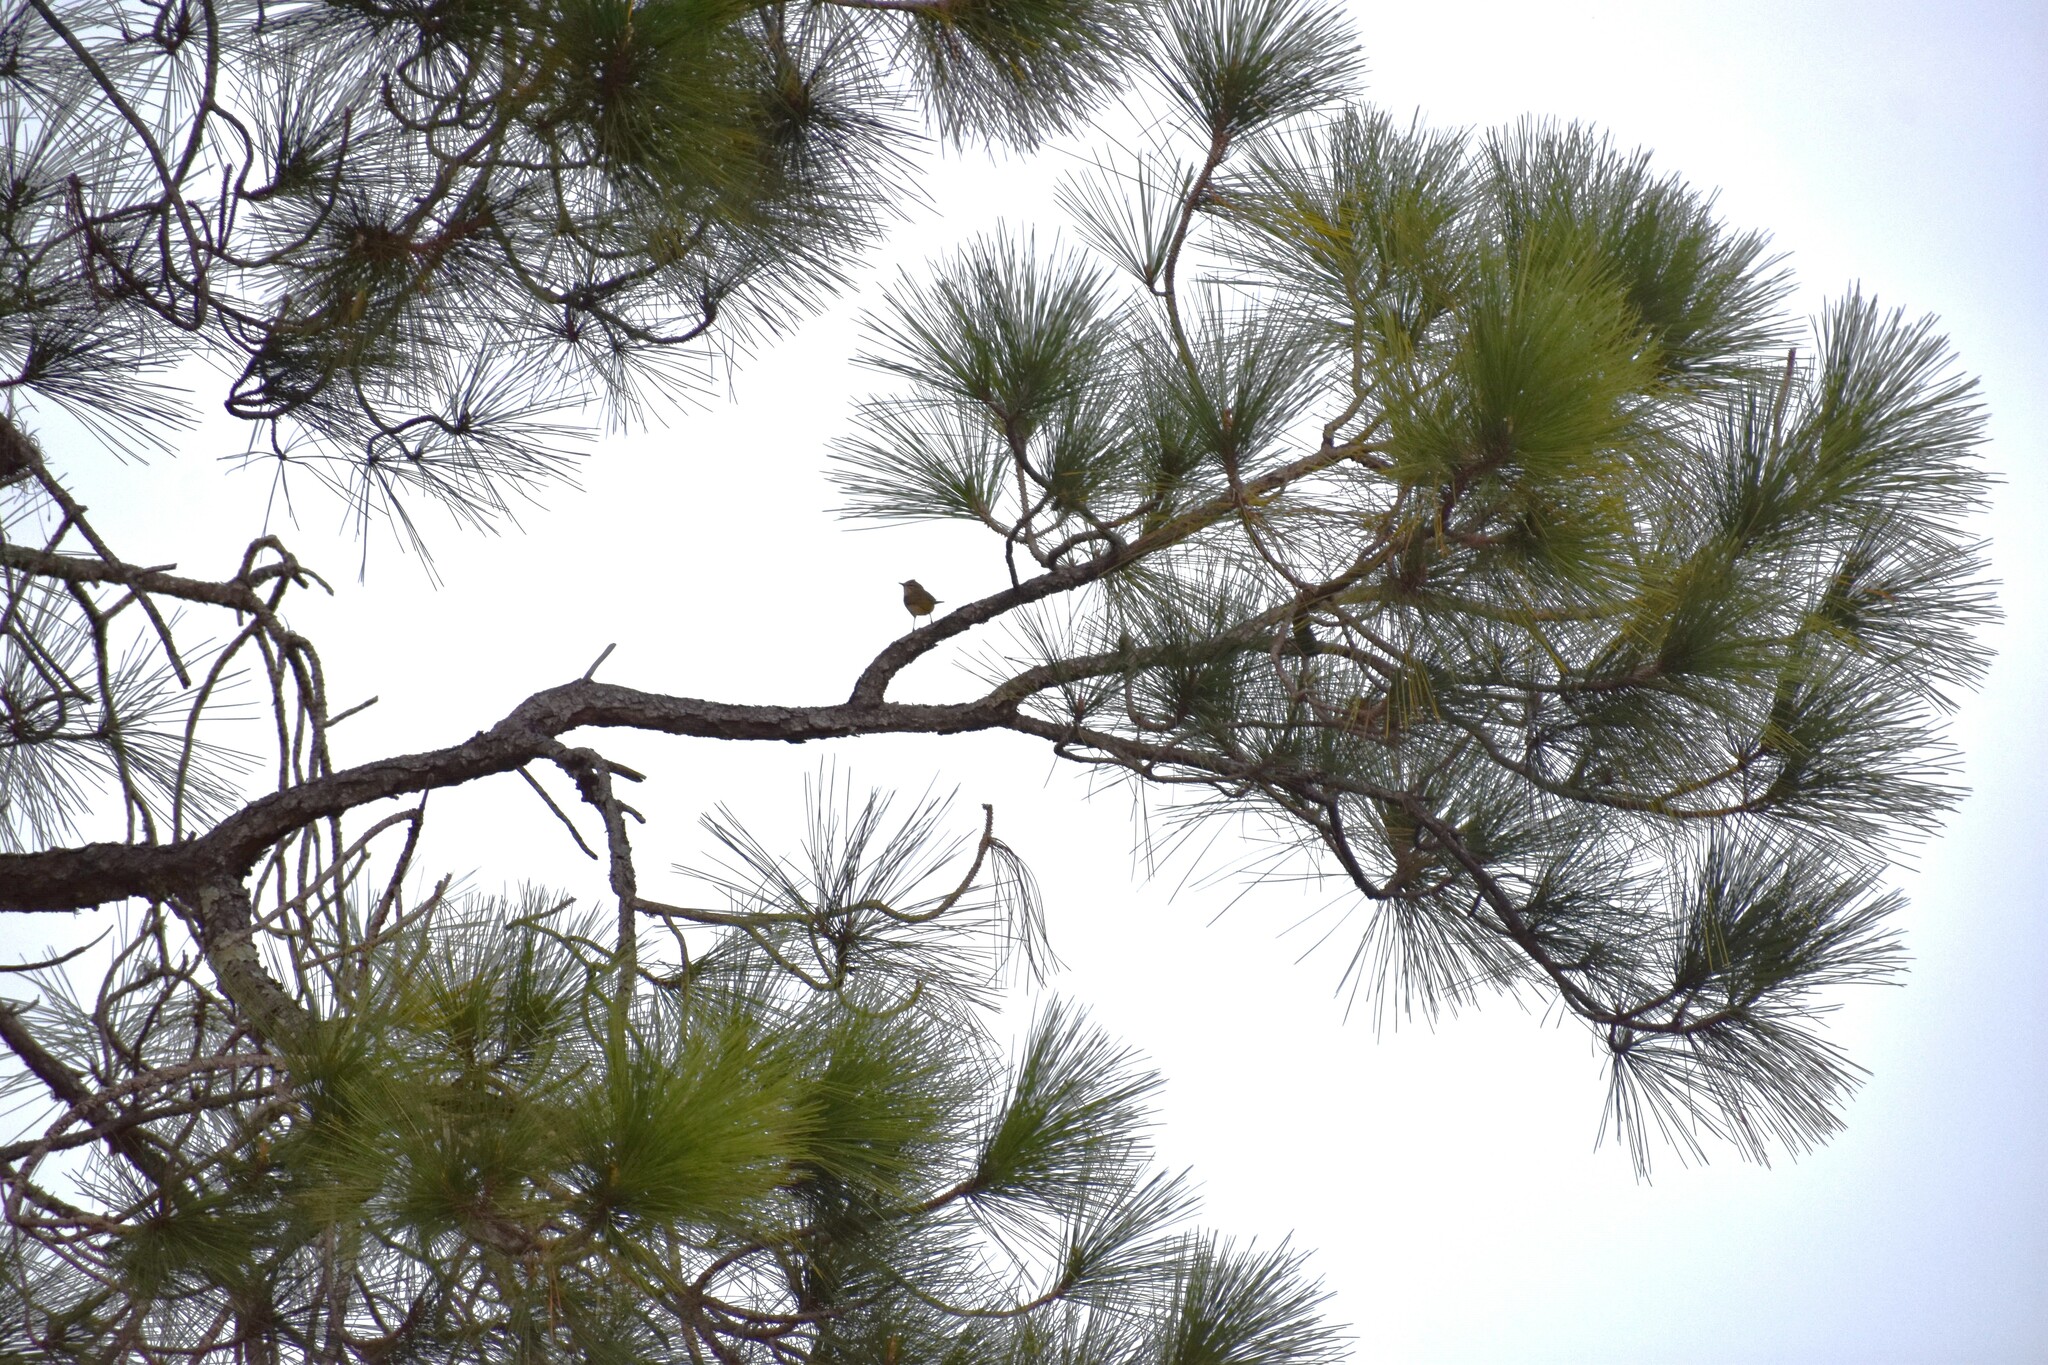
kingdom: Animalia
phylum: Chordata
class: Aves
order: Passeriformes
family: Parulidae
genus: Setophaga
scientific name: Setophaga palmarum
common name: Palm warbler
